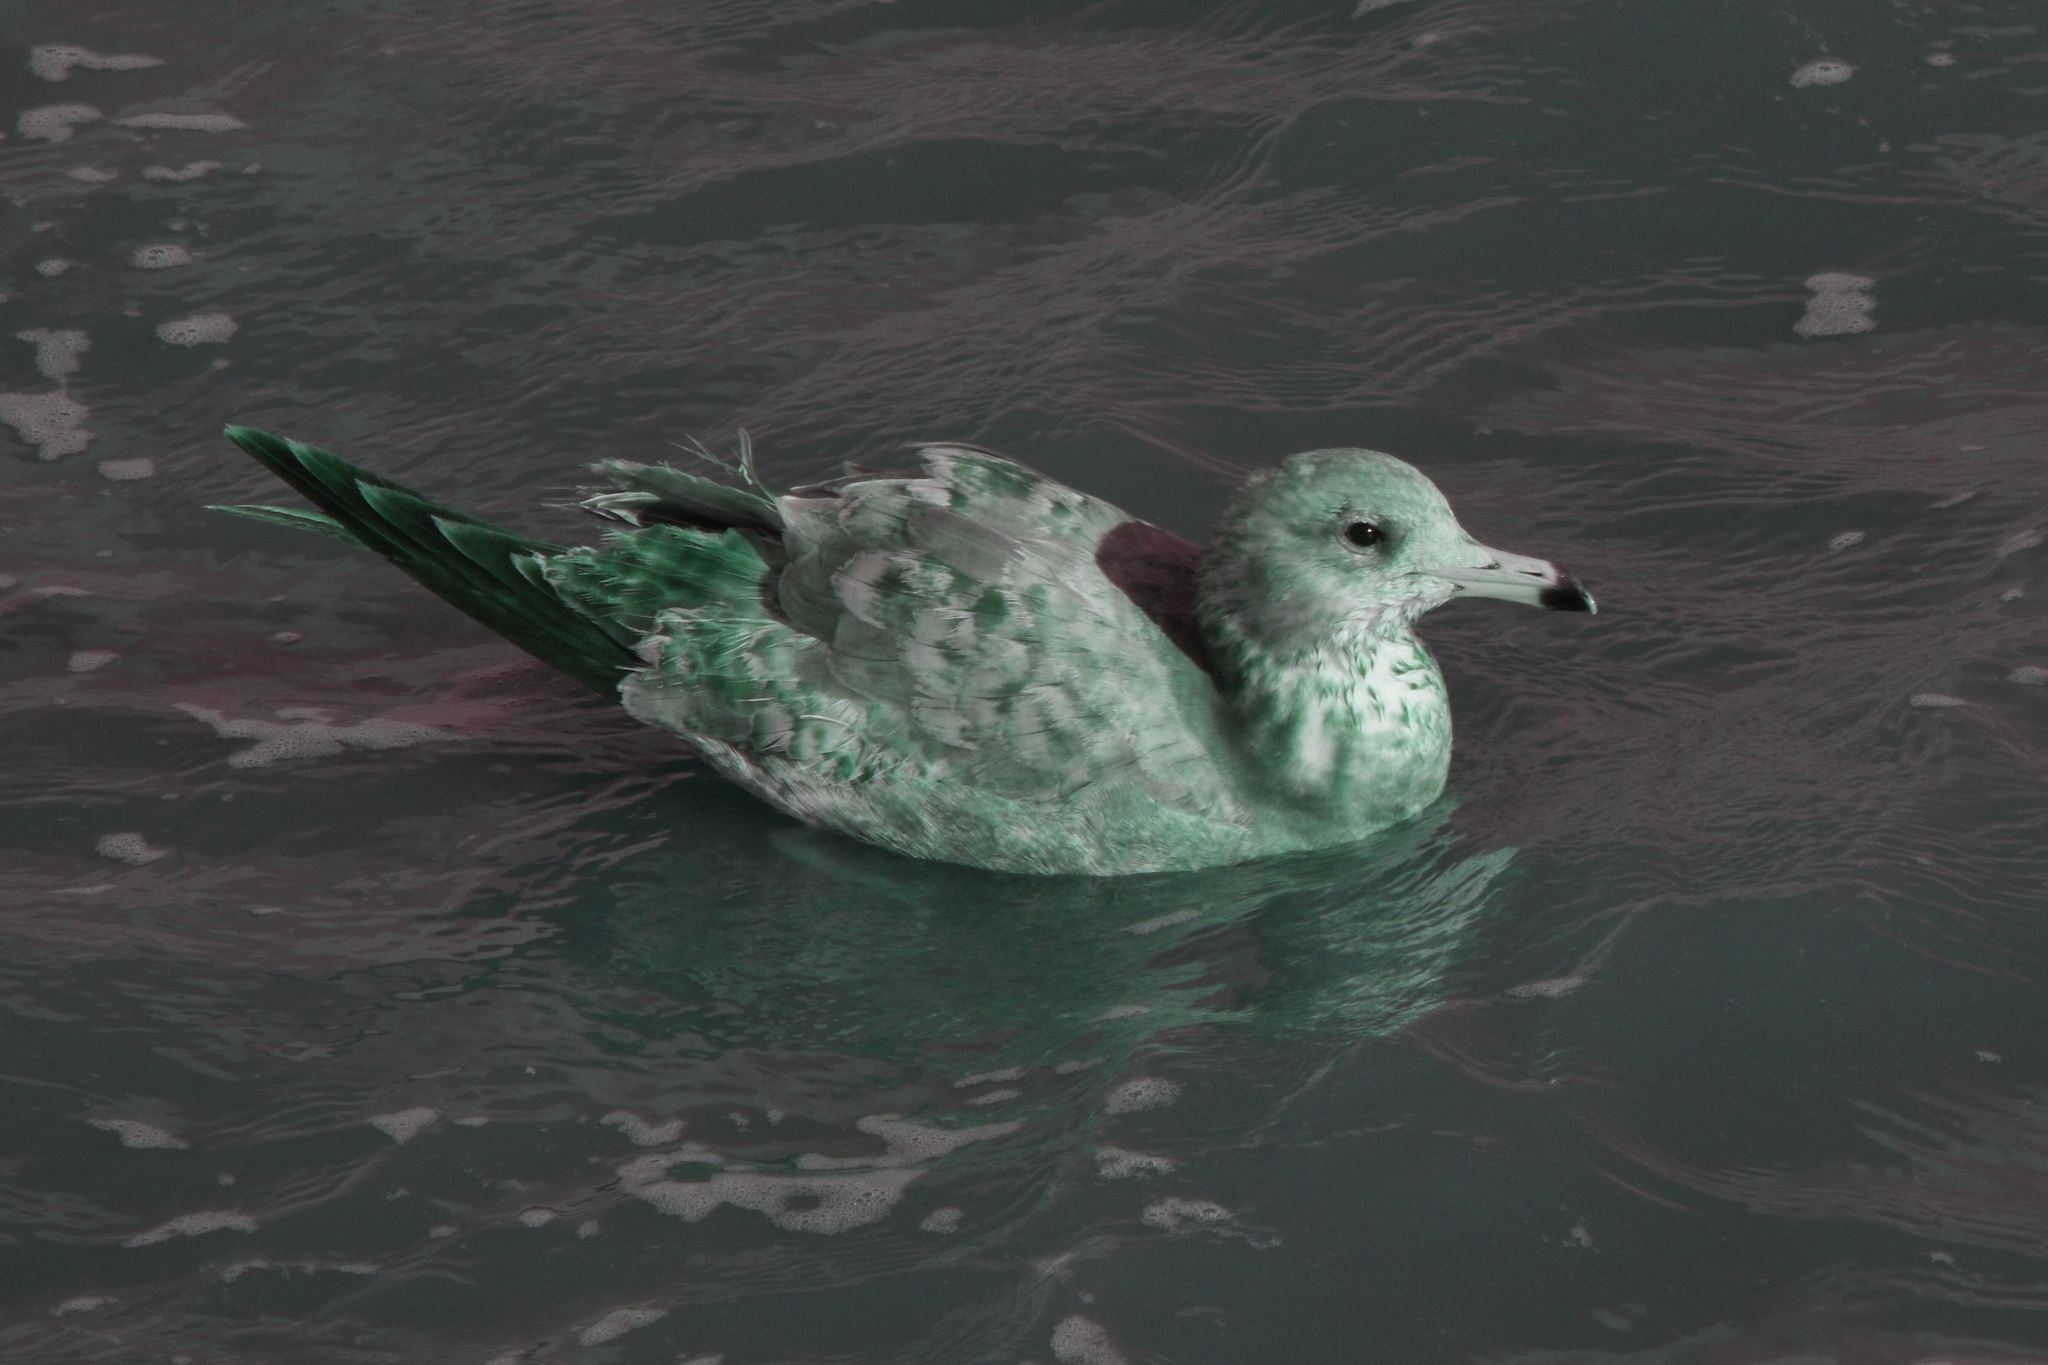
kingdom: Animalia
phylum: Chordata
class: Aves
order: Charadriiformes
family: Laridae
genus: Larus
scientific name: Larus californicus
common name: California gull
